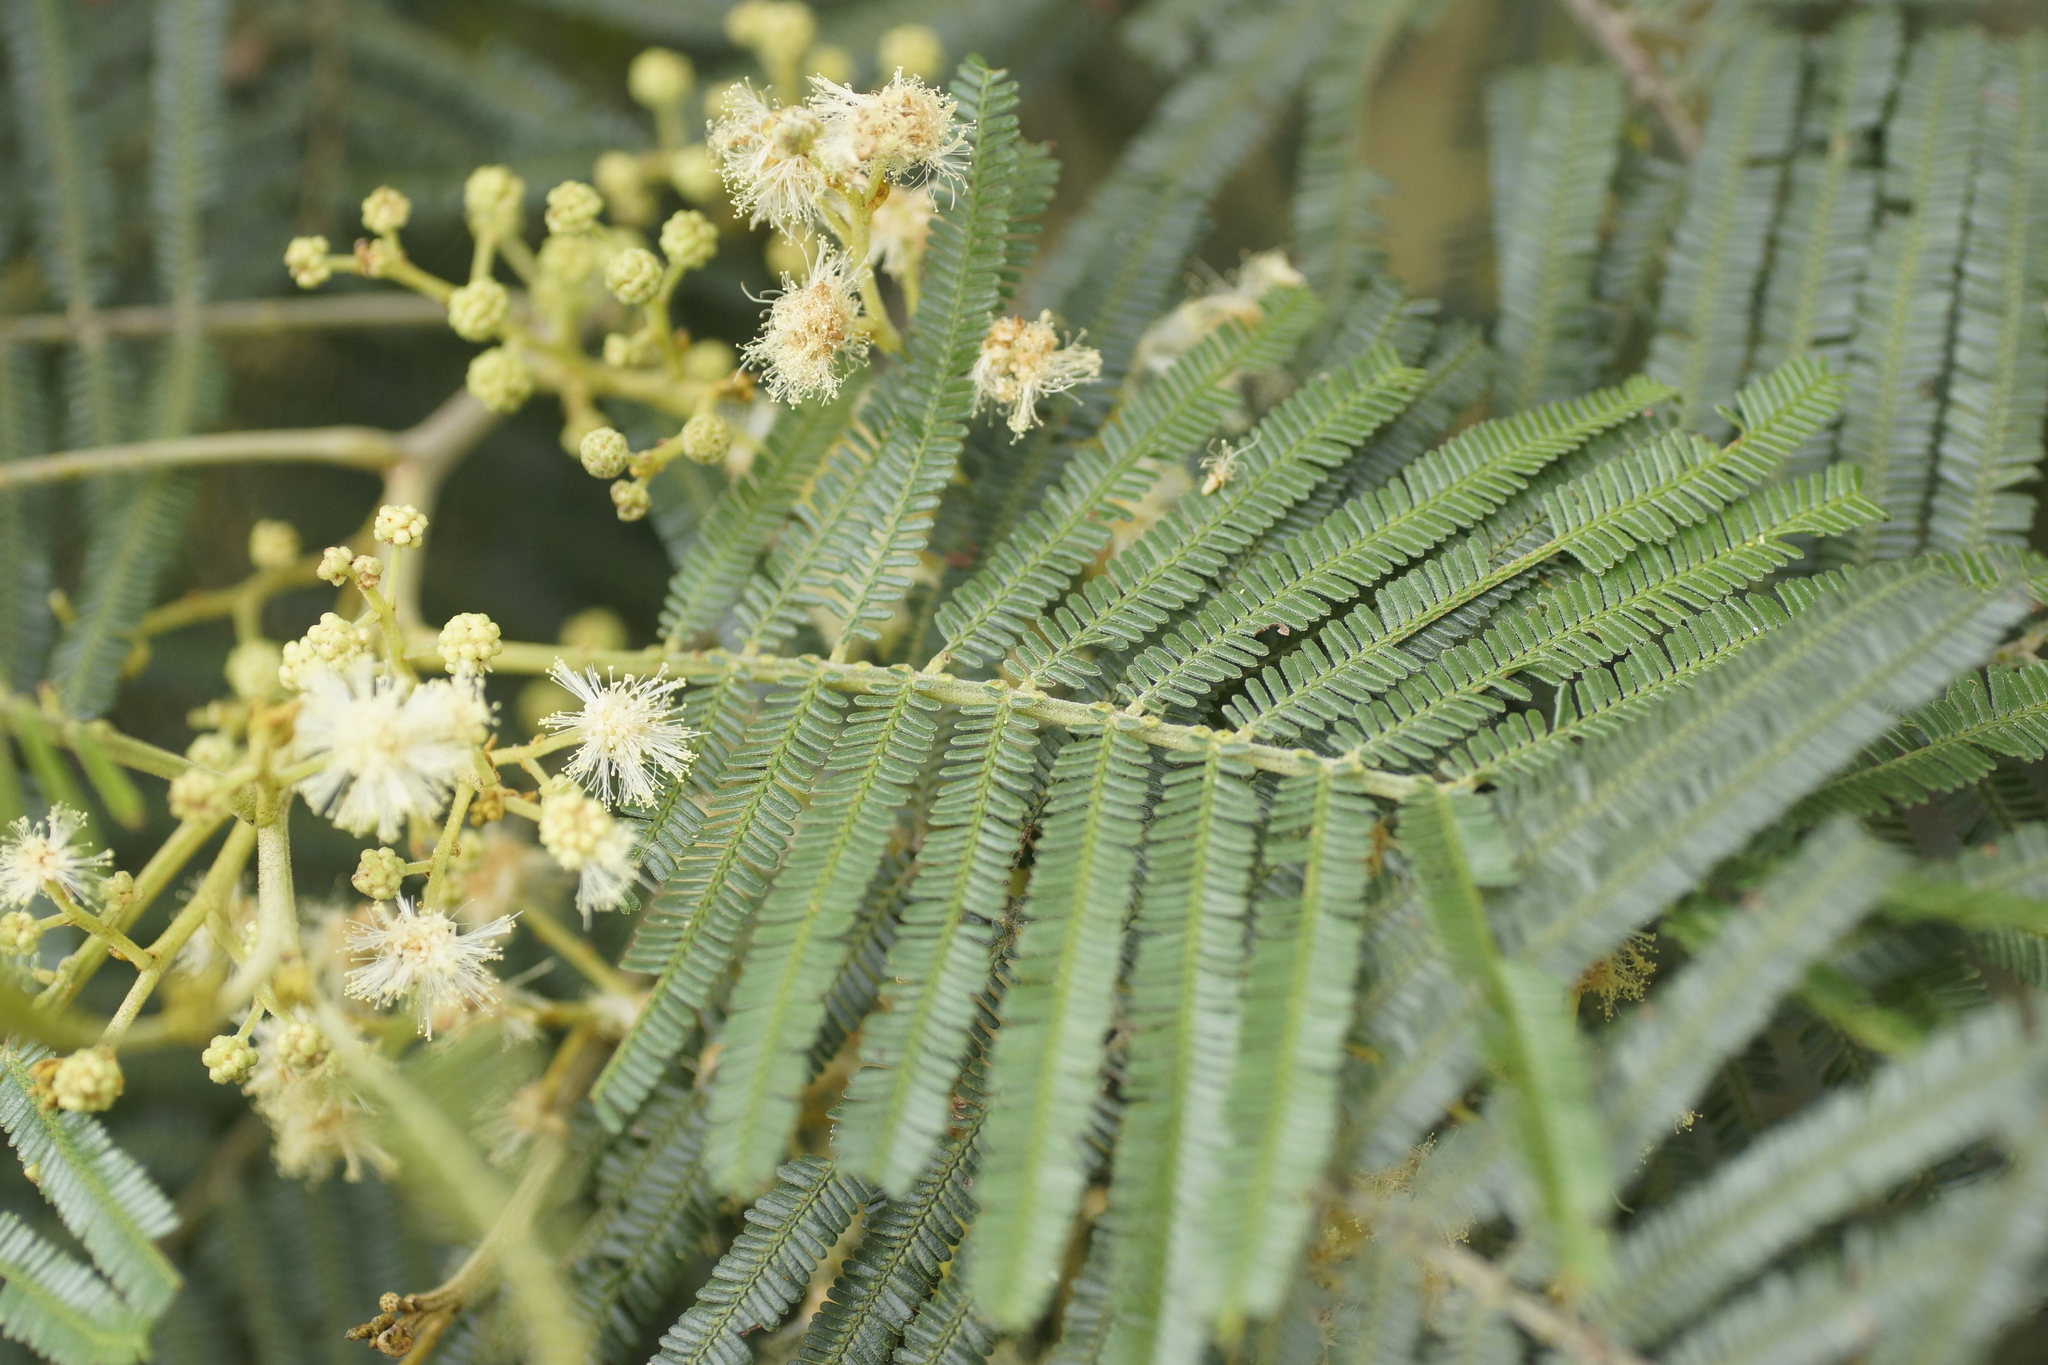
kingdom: Plantae
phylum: Tracheophyta
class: Magnoliopsida
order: Fabales
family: Fabaceae
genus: Acacia
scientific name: Acacia mearnsii
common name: Black wattle
